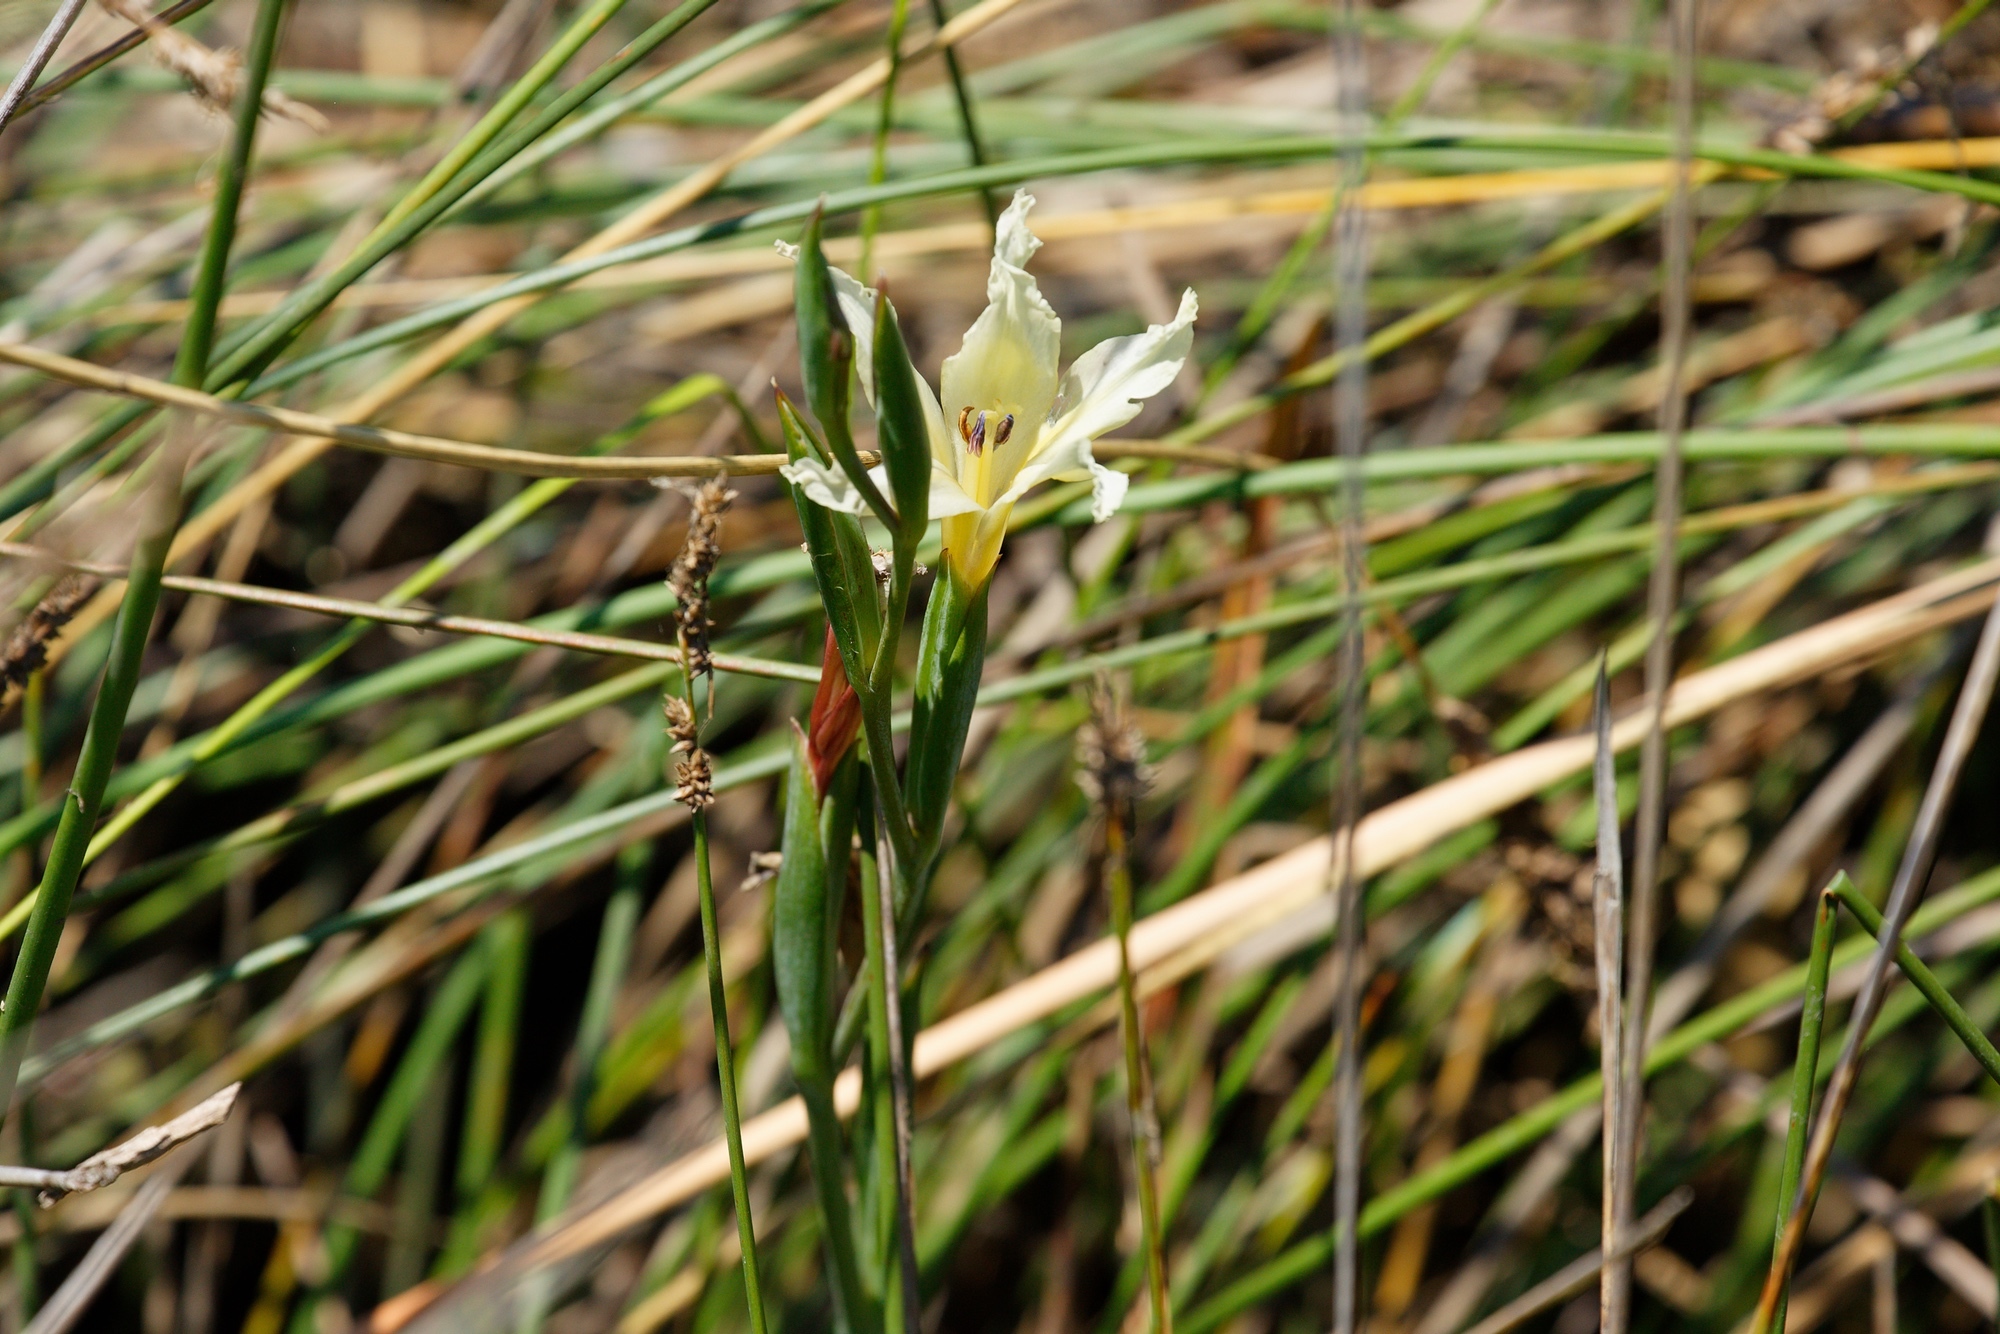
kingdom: Plantae
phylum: Tracheophyta
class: Liliopsida
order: Asparagales
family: Iridaceae
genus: Gladiolus
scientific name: Gladiolus undulatus
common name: Large painted-lady
